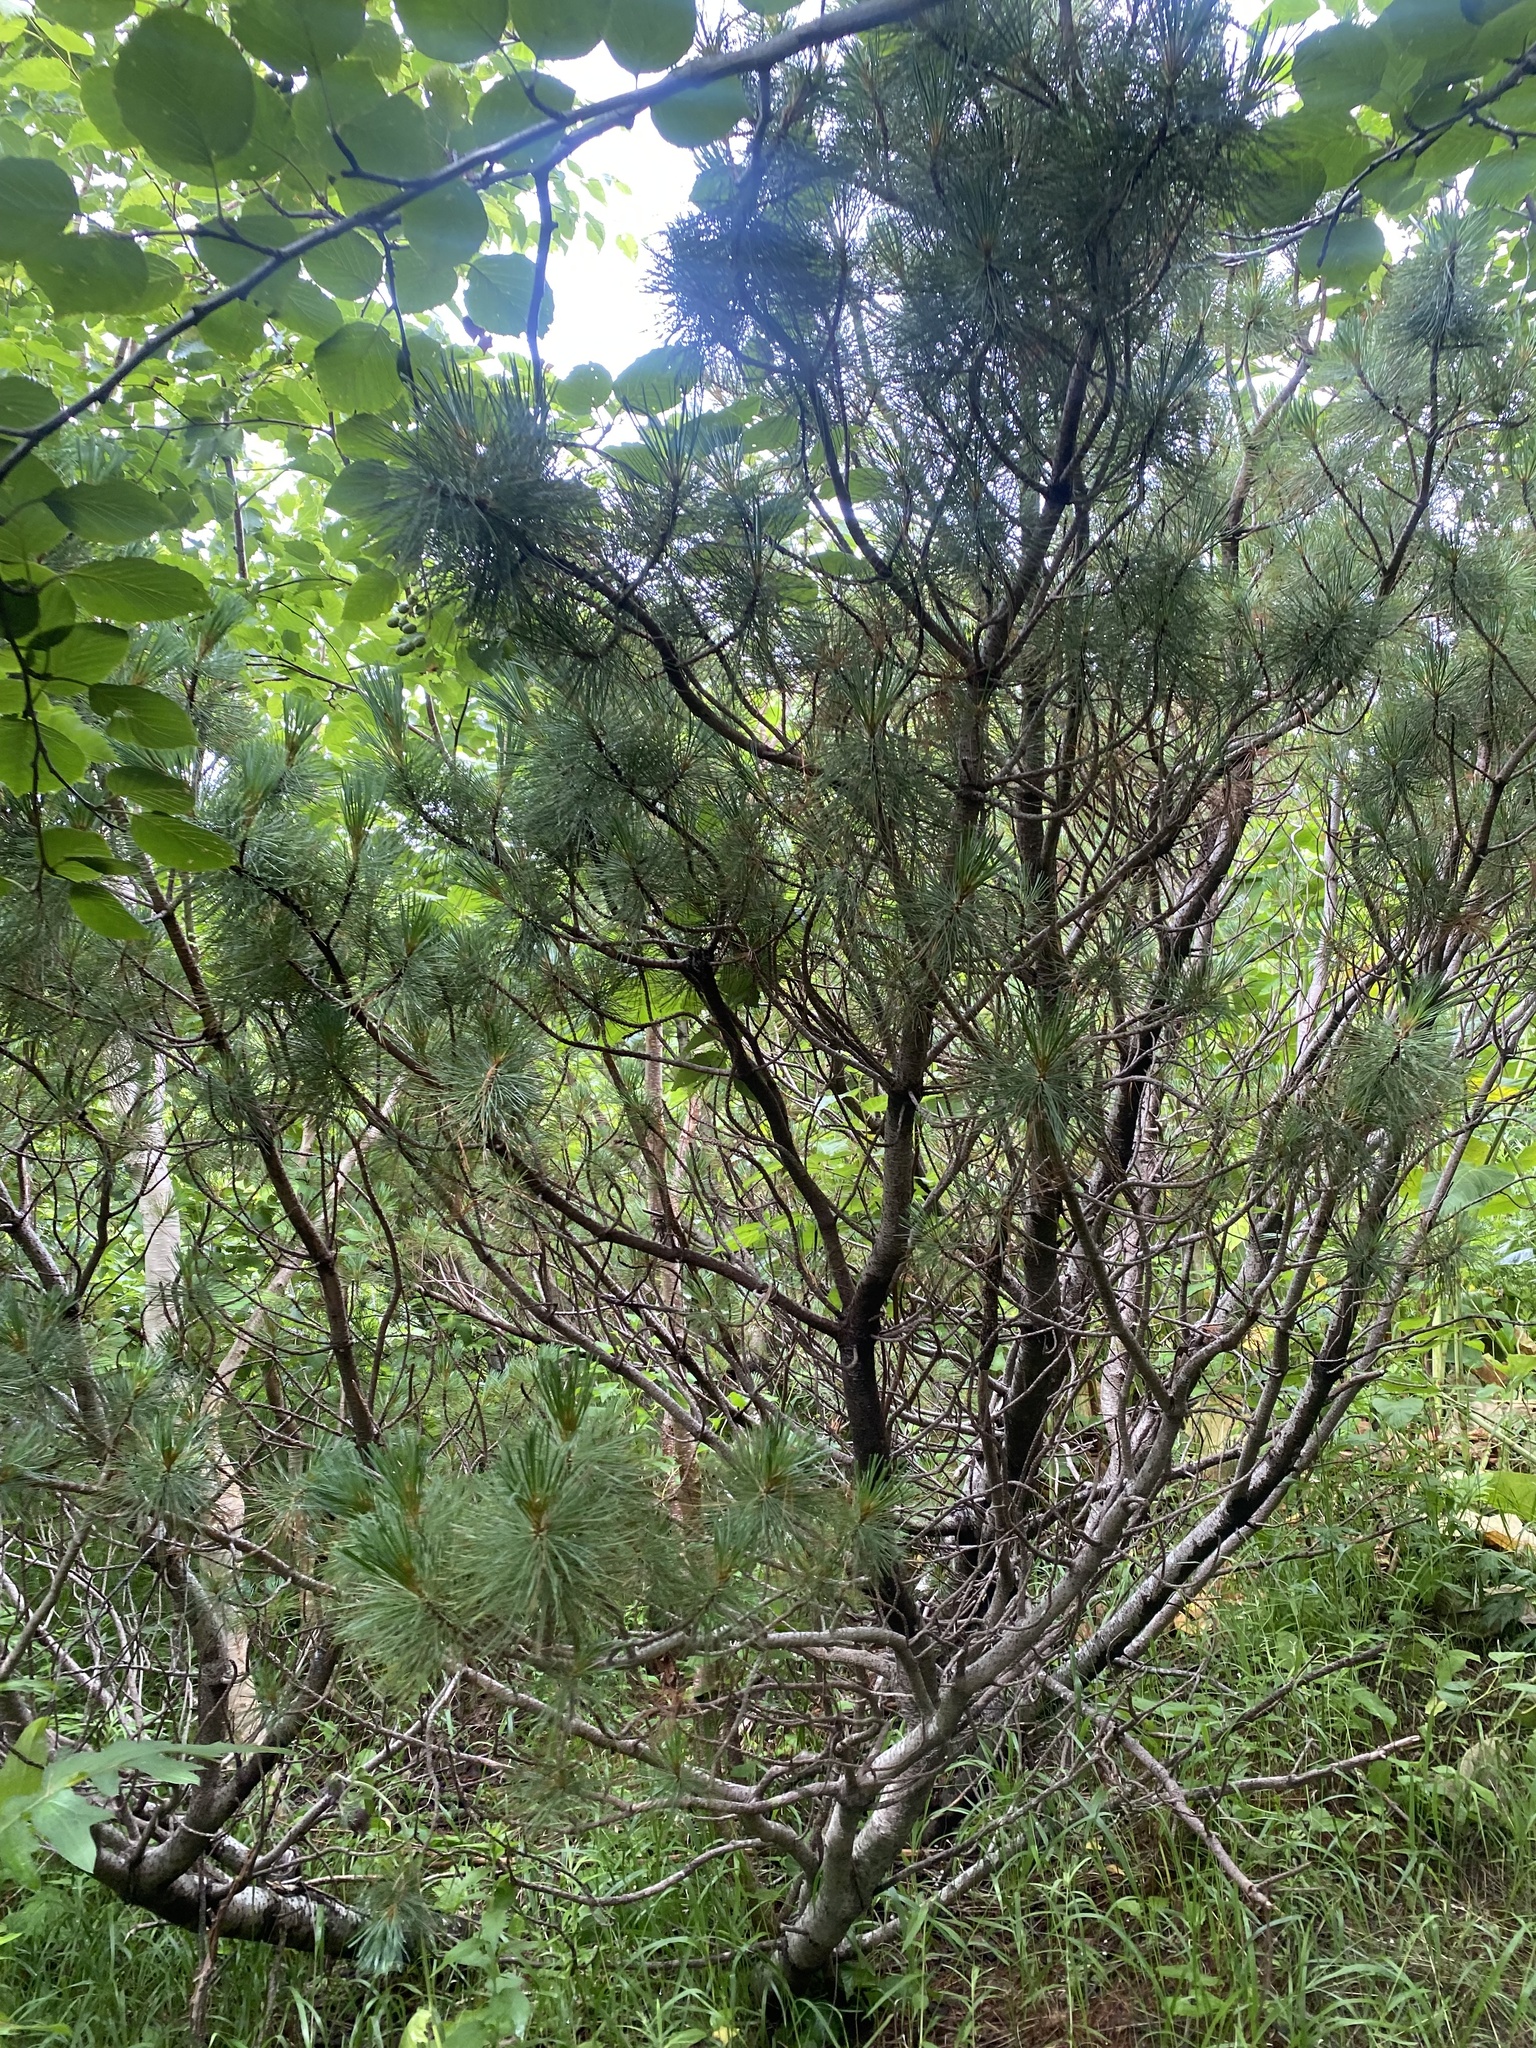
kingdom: Plantae
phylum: Tracheophyta
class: Pinopsida
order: Pinales
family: Pinaceae
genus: Pinus
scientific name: Pinus pumila
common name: Dwarf siberian pine
